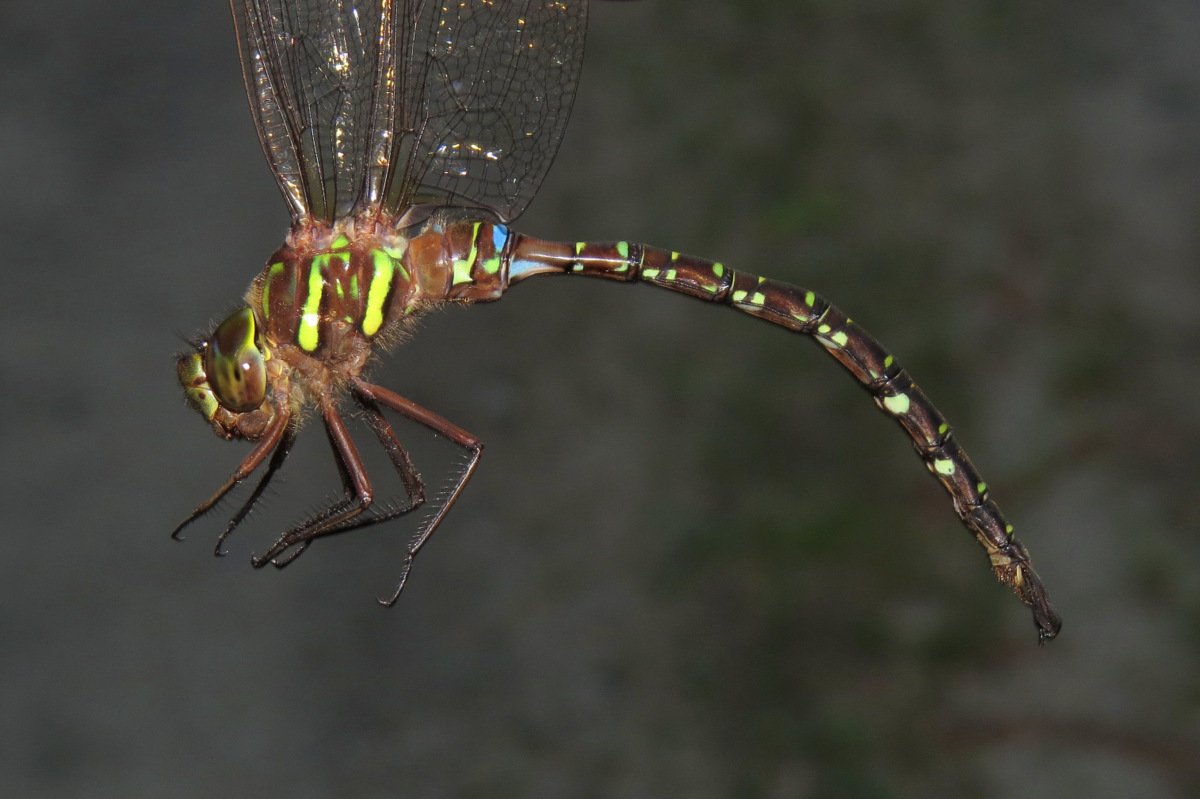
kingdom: Animalia
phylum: Arthropoda
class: Insecta
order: Odonata
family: Aeshnidae
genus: Aeshna
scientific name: Aeshna umbrosa
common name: Shadow darner
